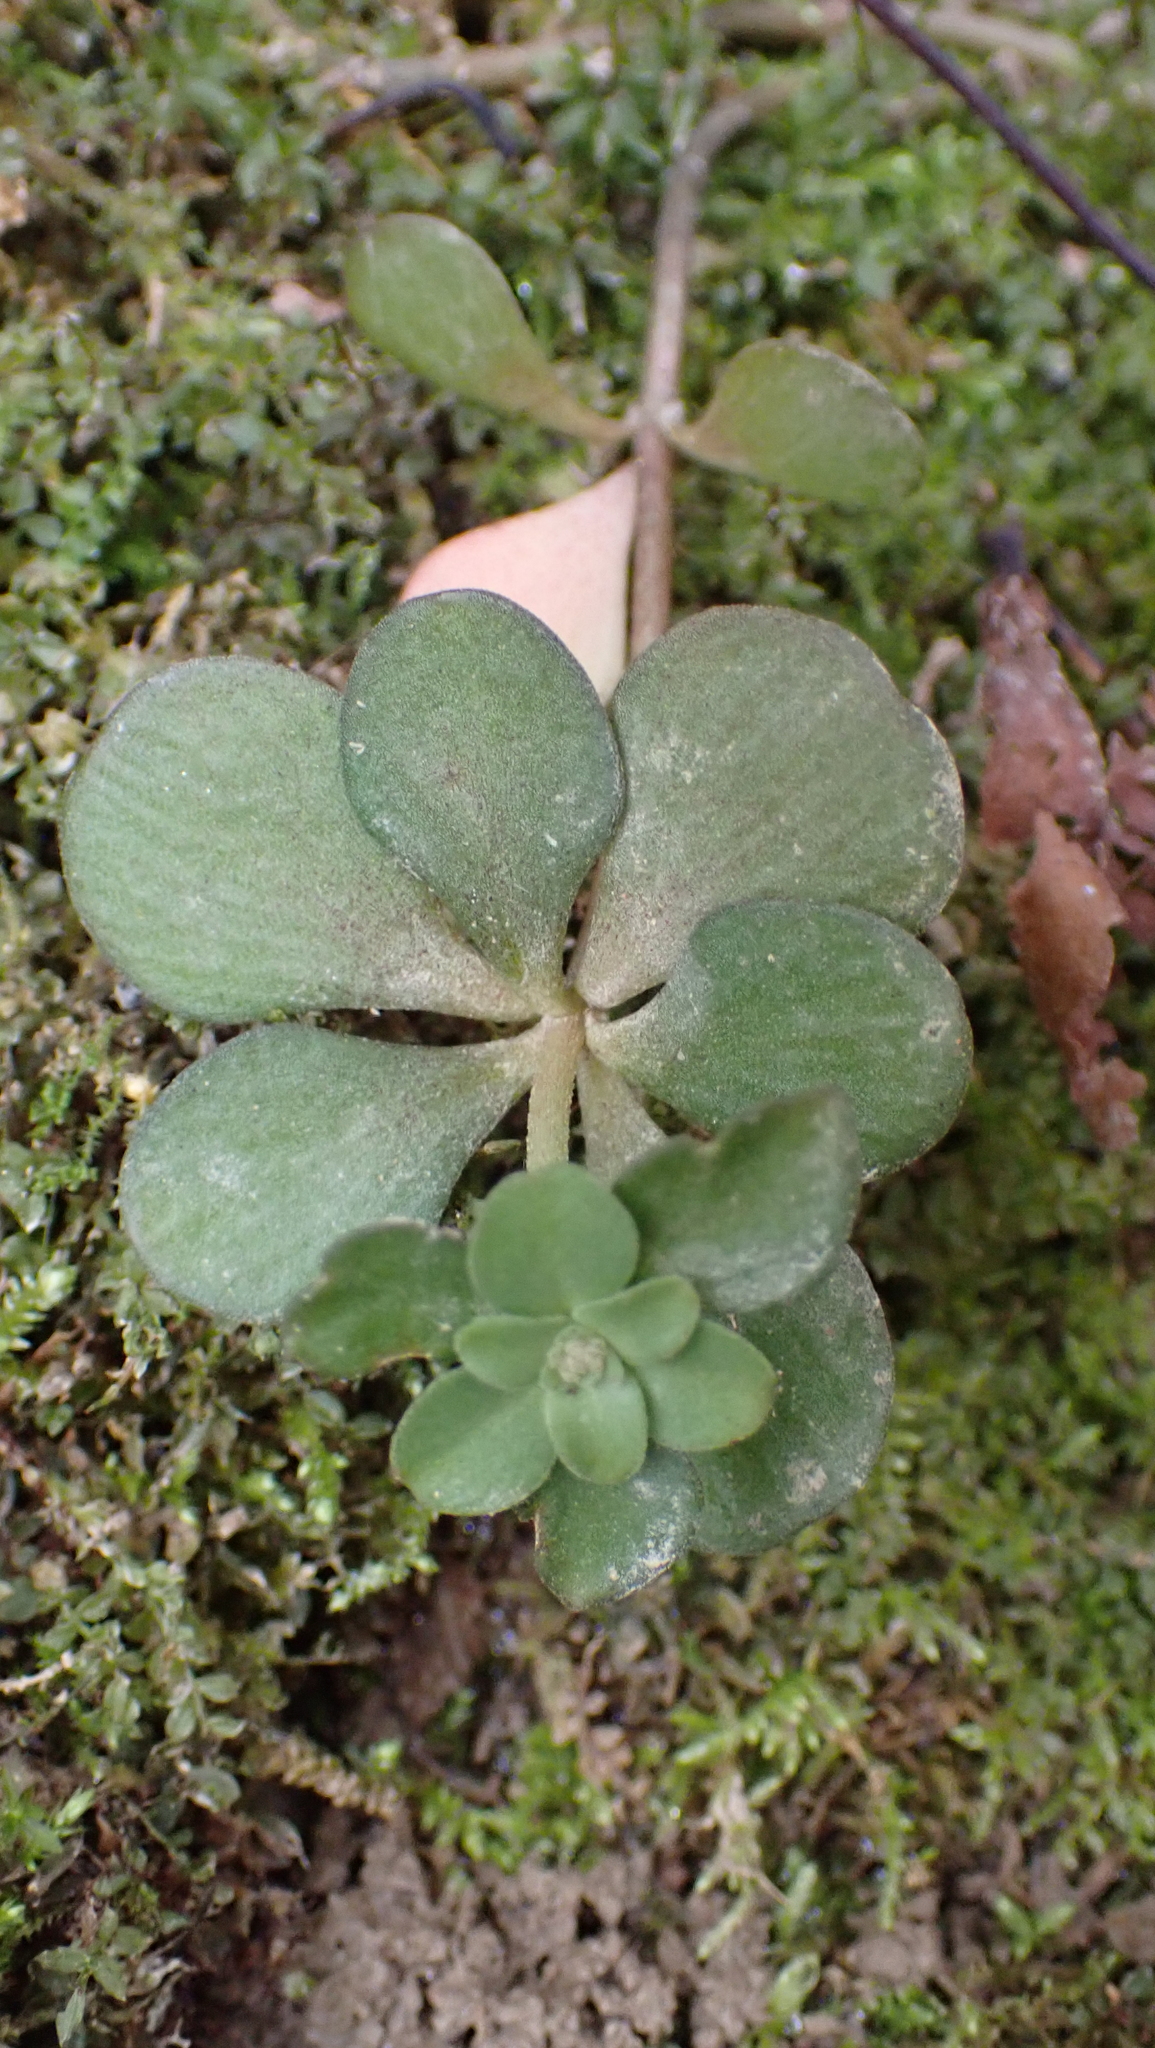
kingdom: Plantae
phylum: Tracheophyta
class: Magnoliopsida
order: Saxifragales
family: Crassulaceae
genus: Sedum
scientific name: Sedum ternatum
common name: Wild stonecrop
